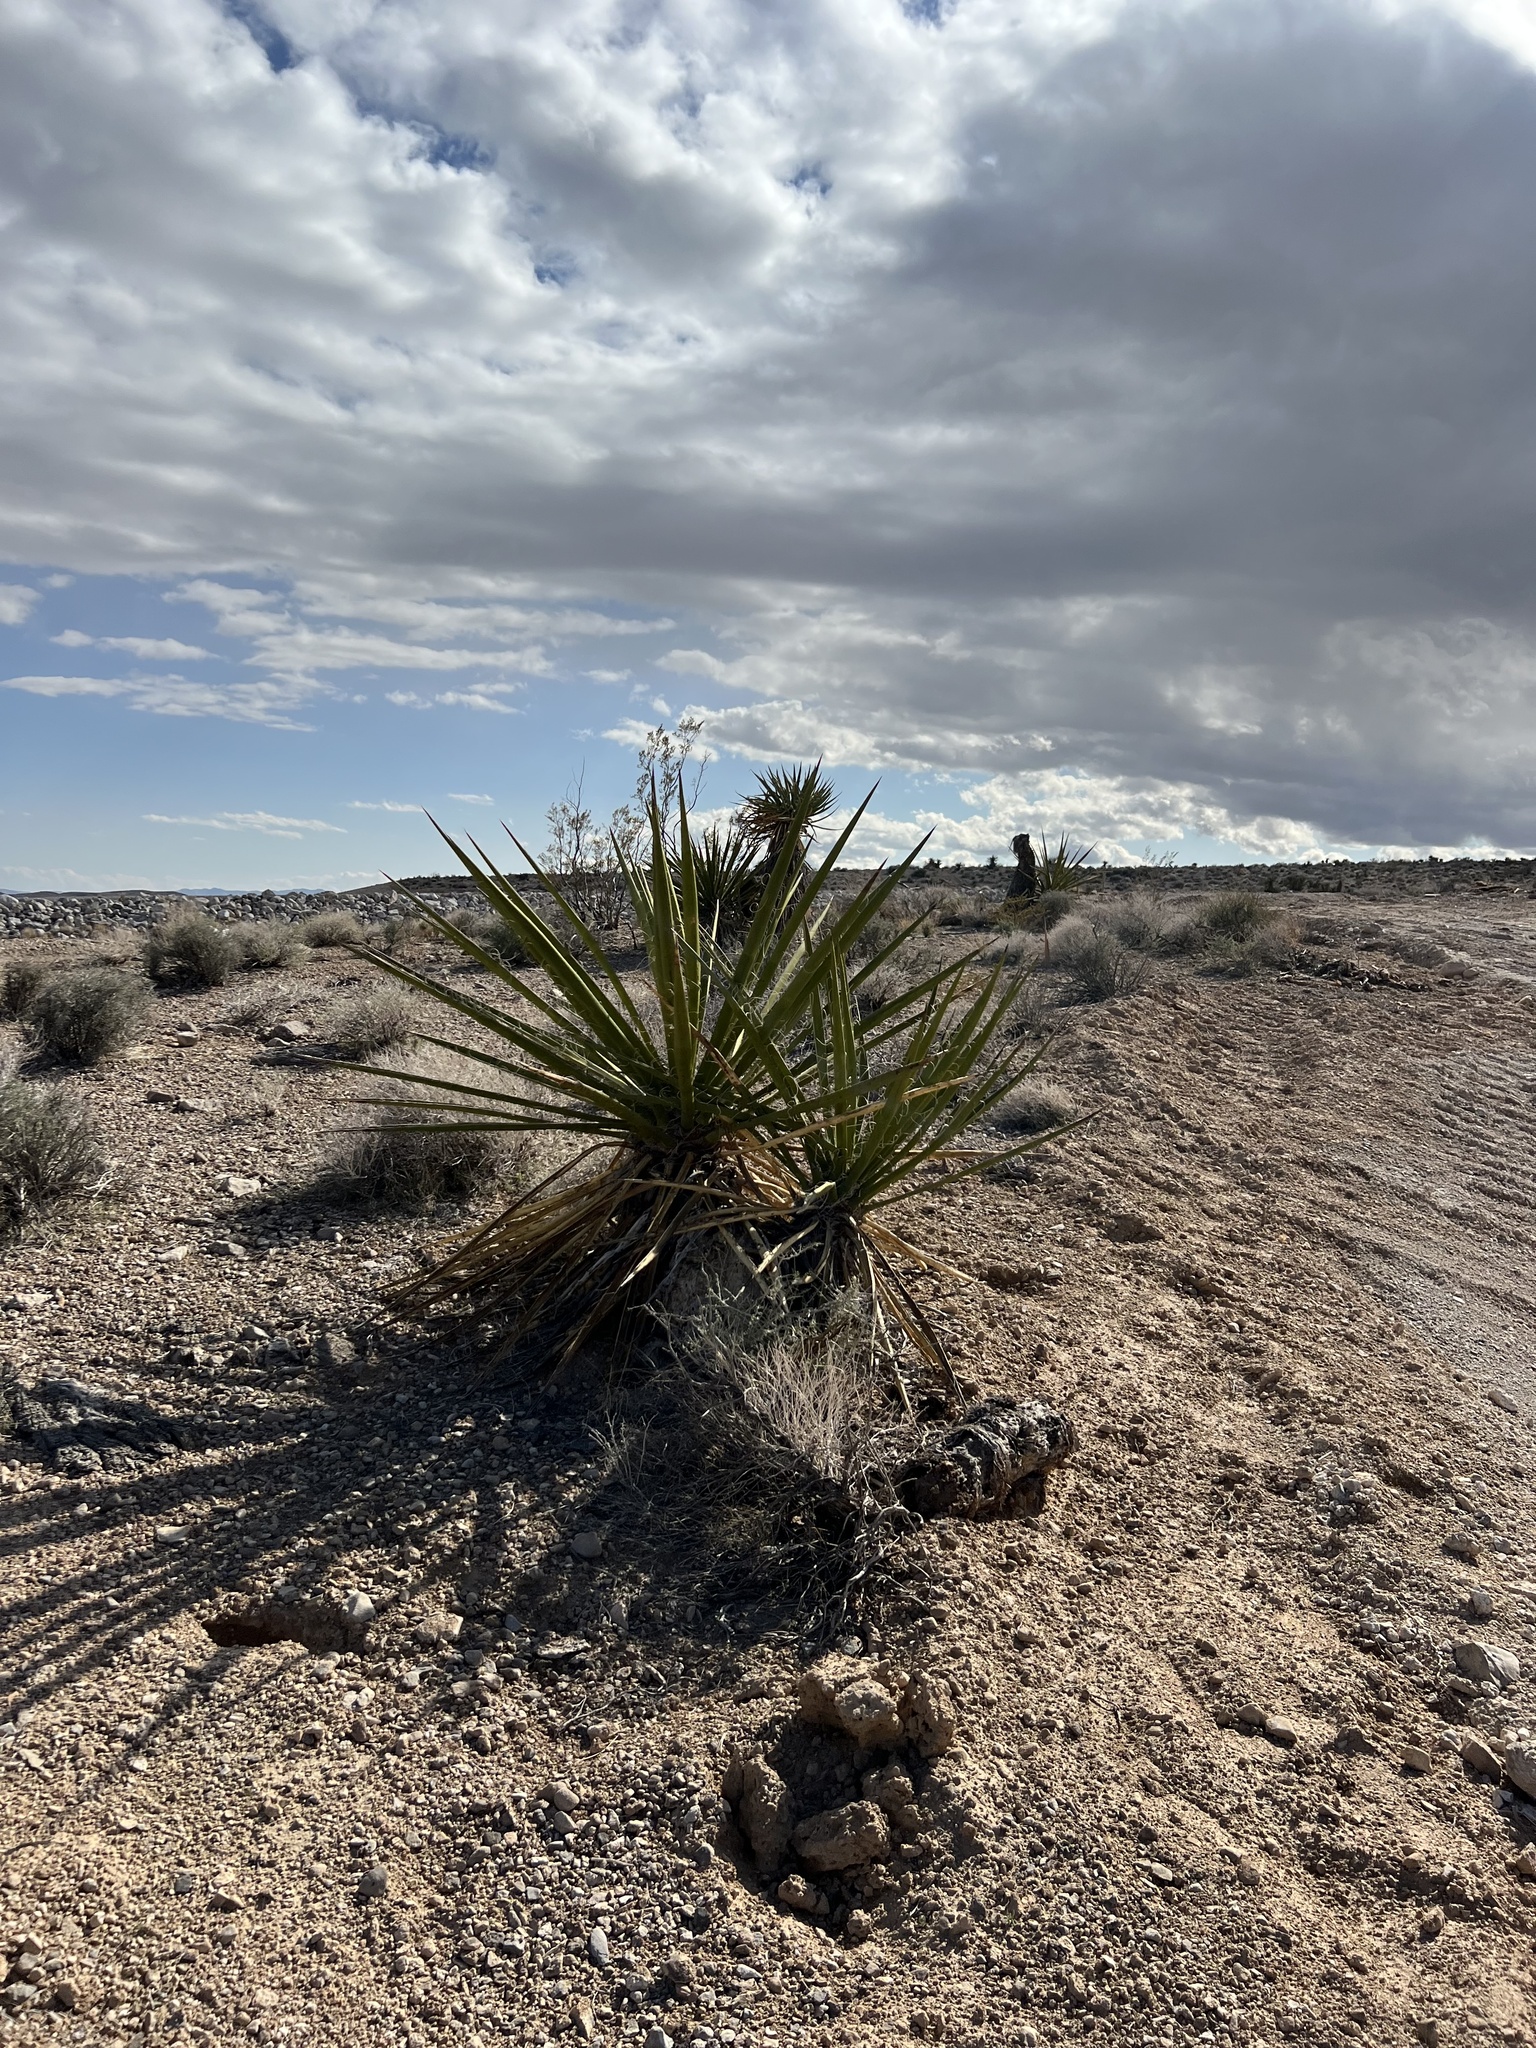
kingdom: Plantae
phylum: Tracheophyta
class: Liliopsida
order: Asparagales
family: Asparagaceae
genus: Yucca
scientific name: Yucca schidigera
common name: Mojave yucca
